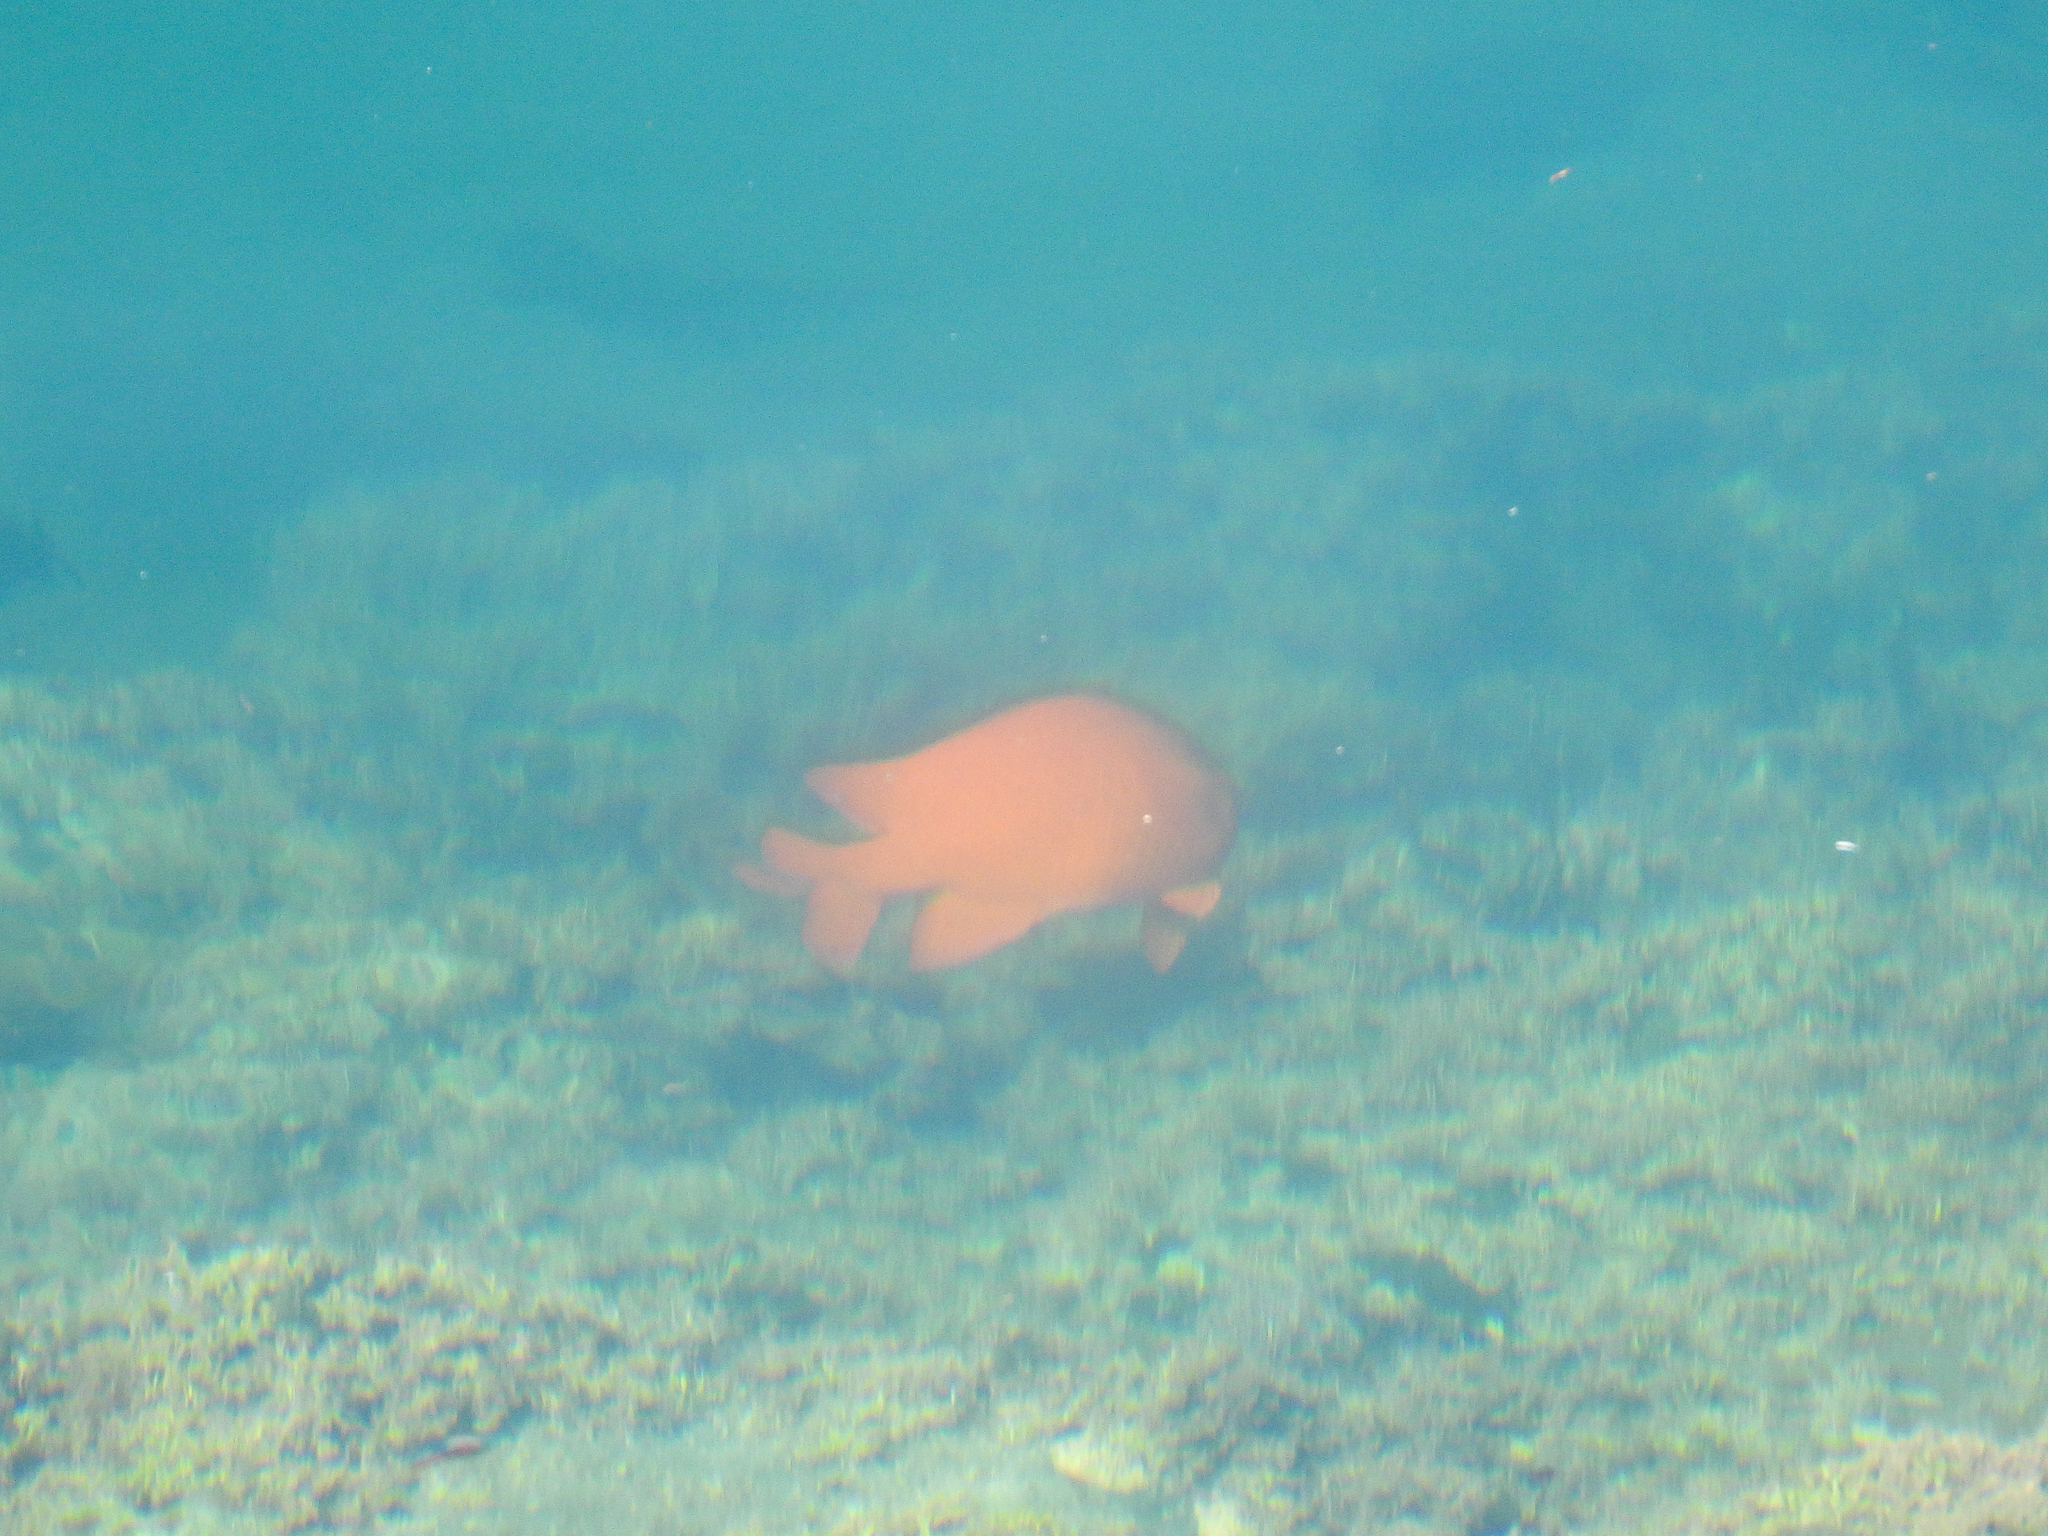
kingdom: Animalia
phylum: Chordata
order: Perciformes
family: Pomacentridae
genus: Hypsypops
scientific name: Hypsypops rubicundus
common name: Garibaldi
